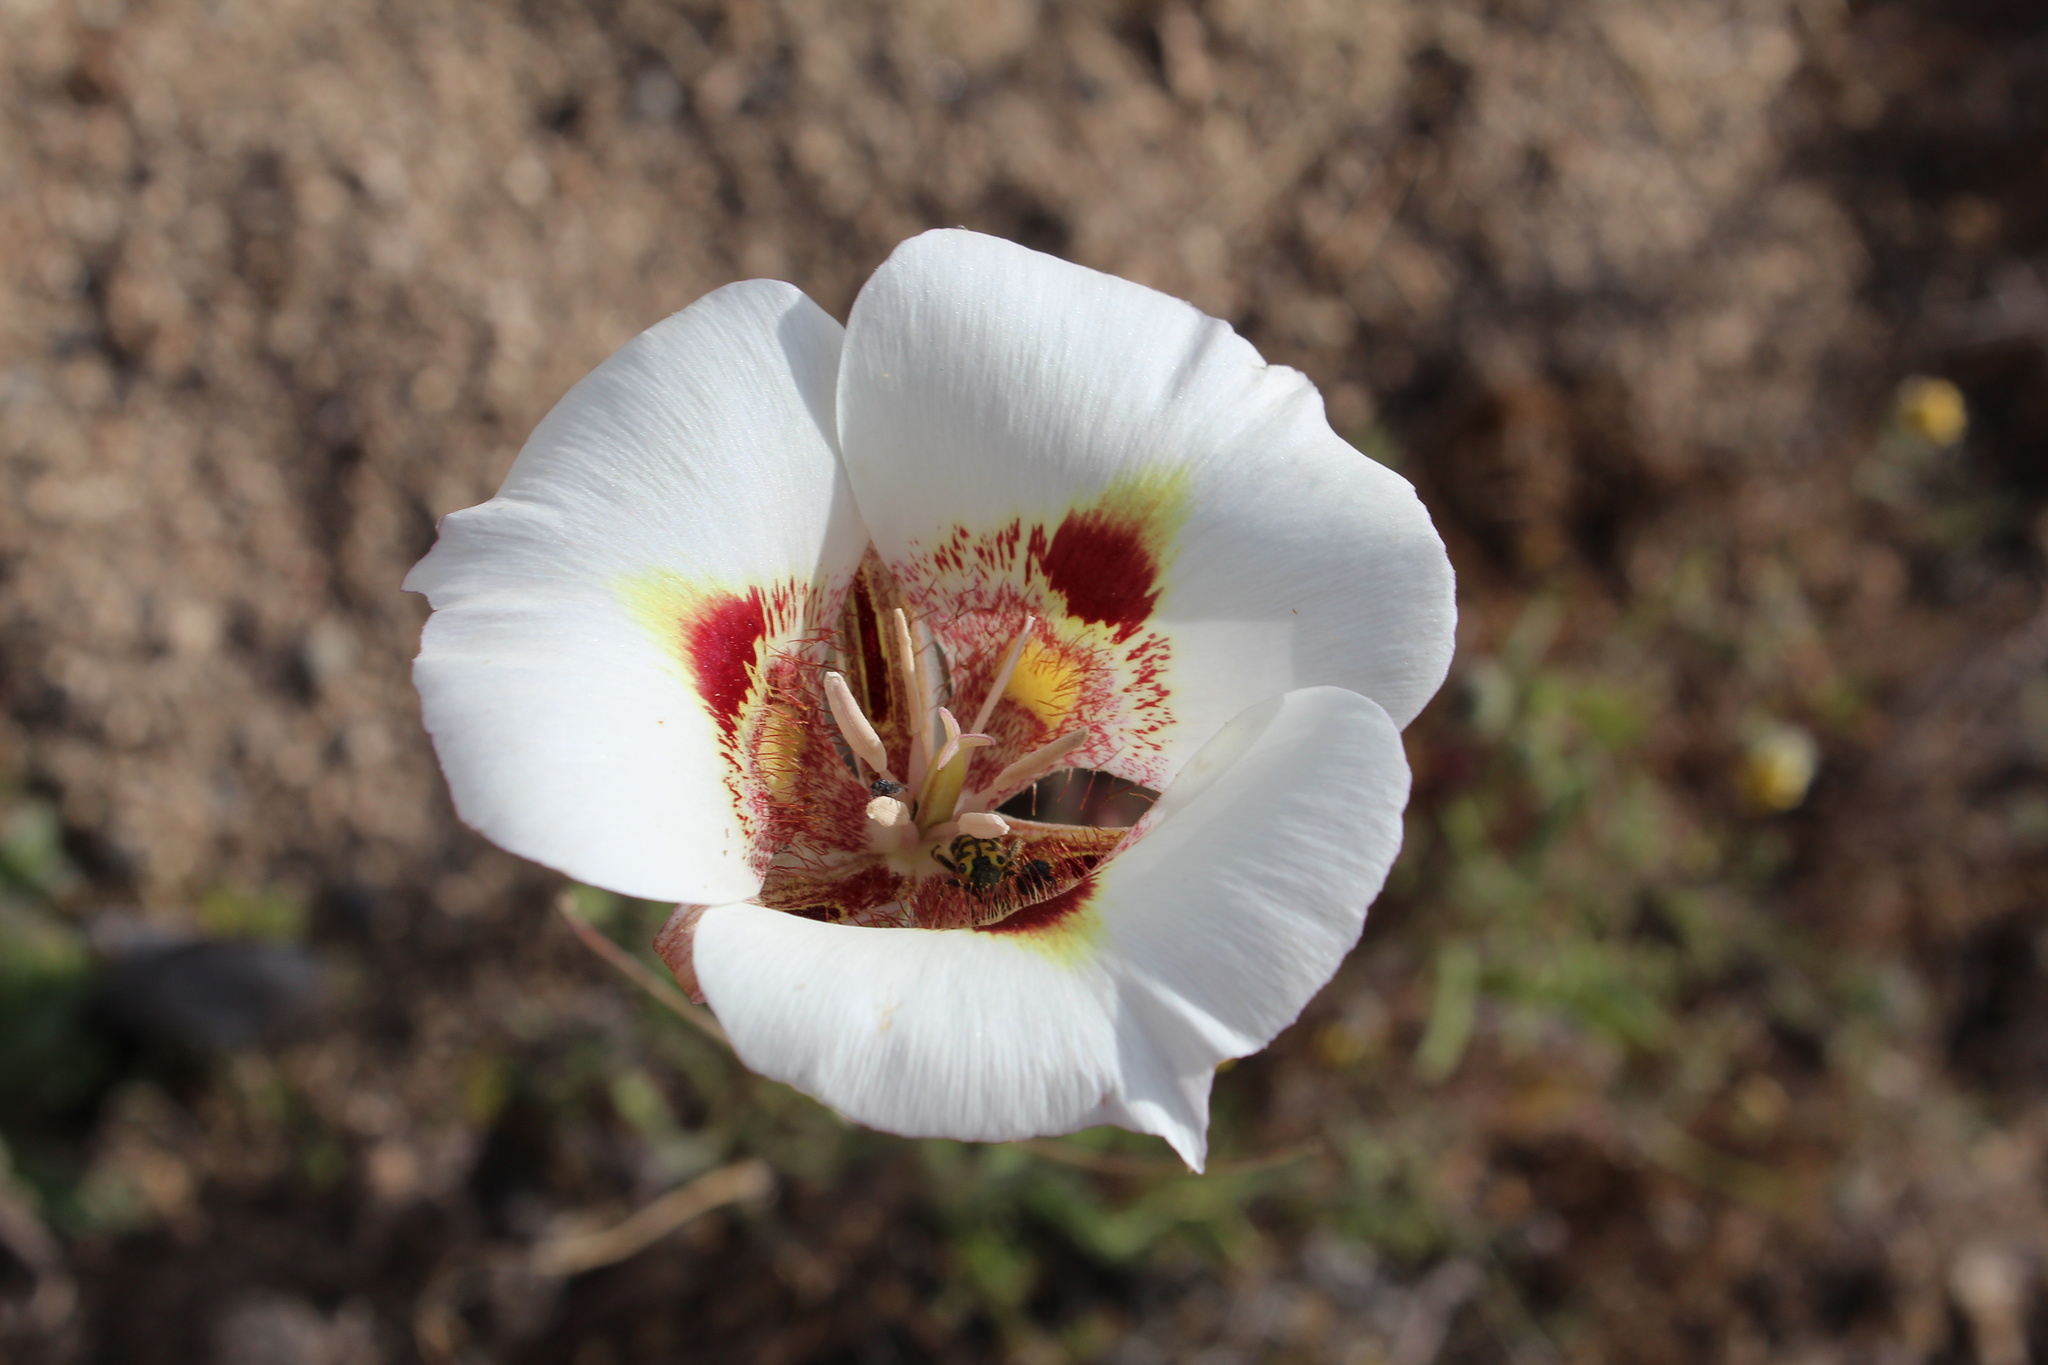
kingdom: Plantae
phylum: Tracheophyta
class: Liliopsida
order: Liliales
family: Liliaceae
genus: Calochortus
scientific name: Calochortus venustus
